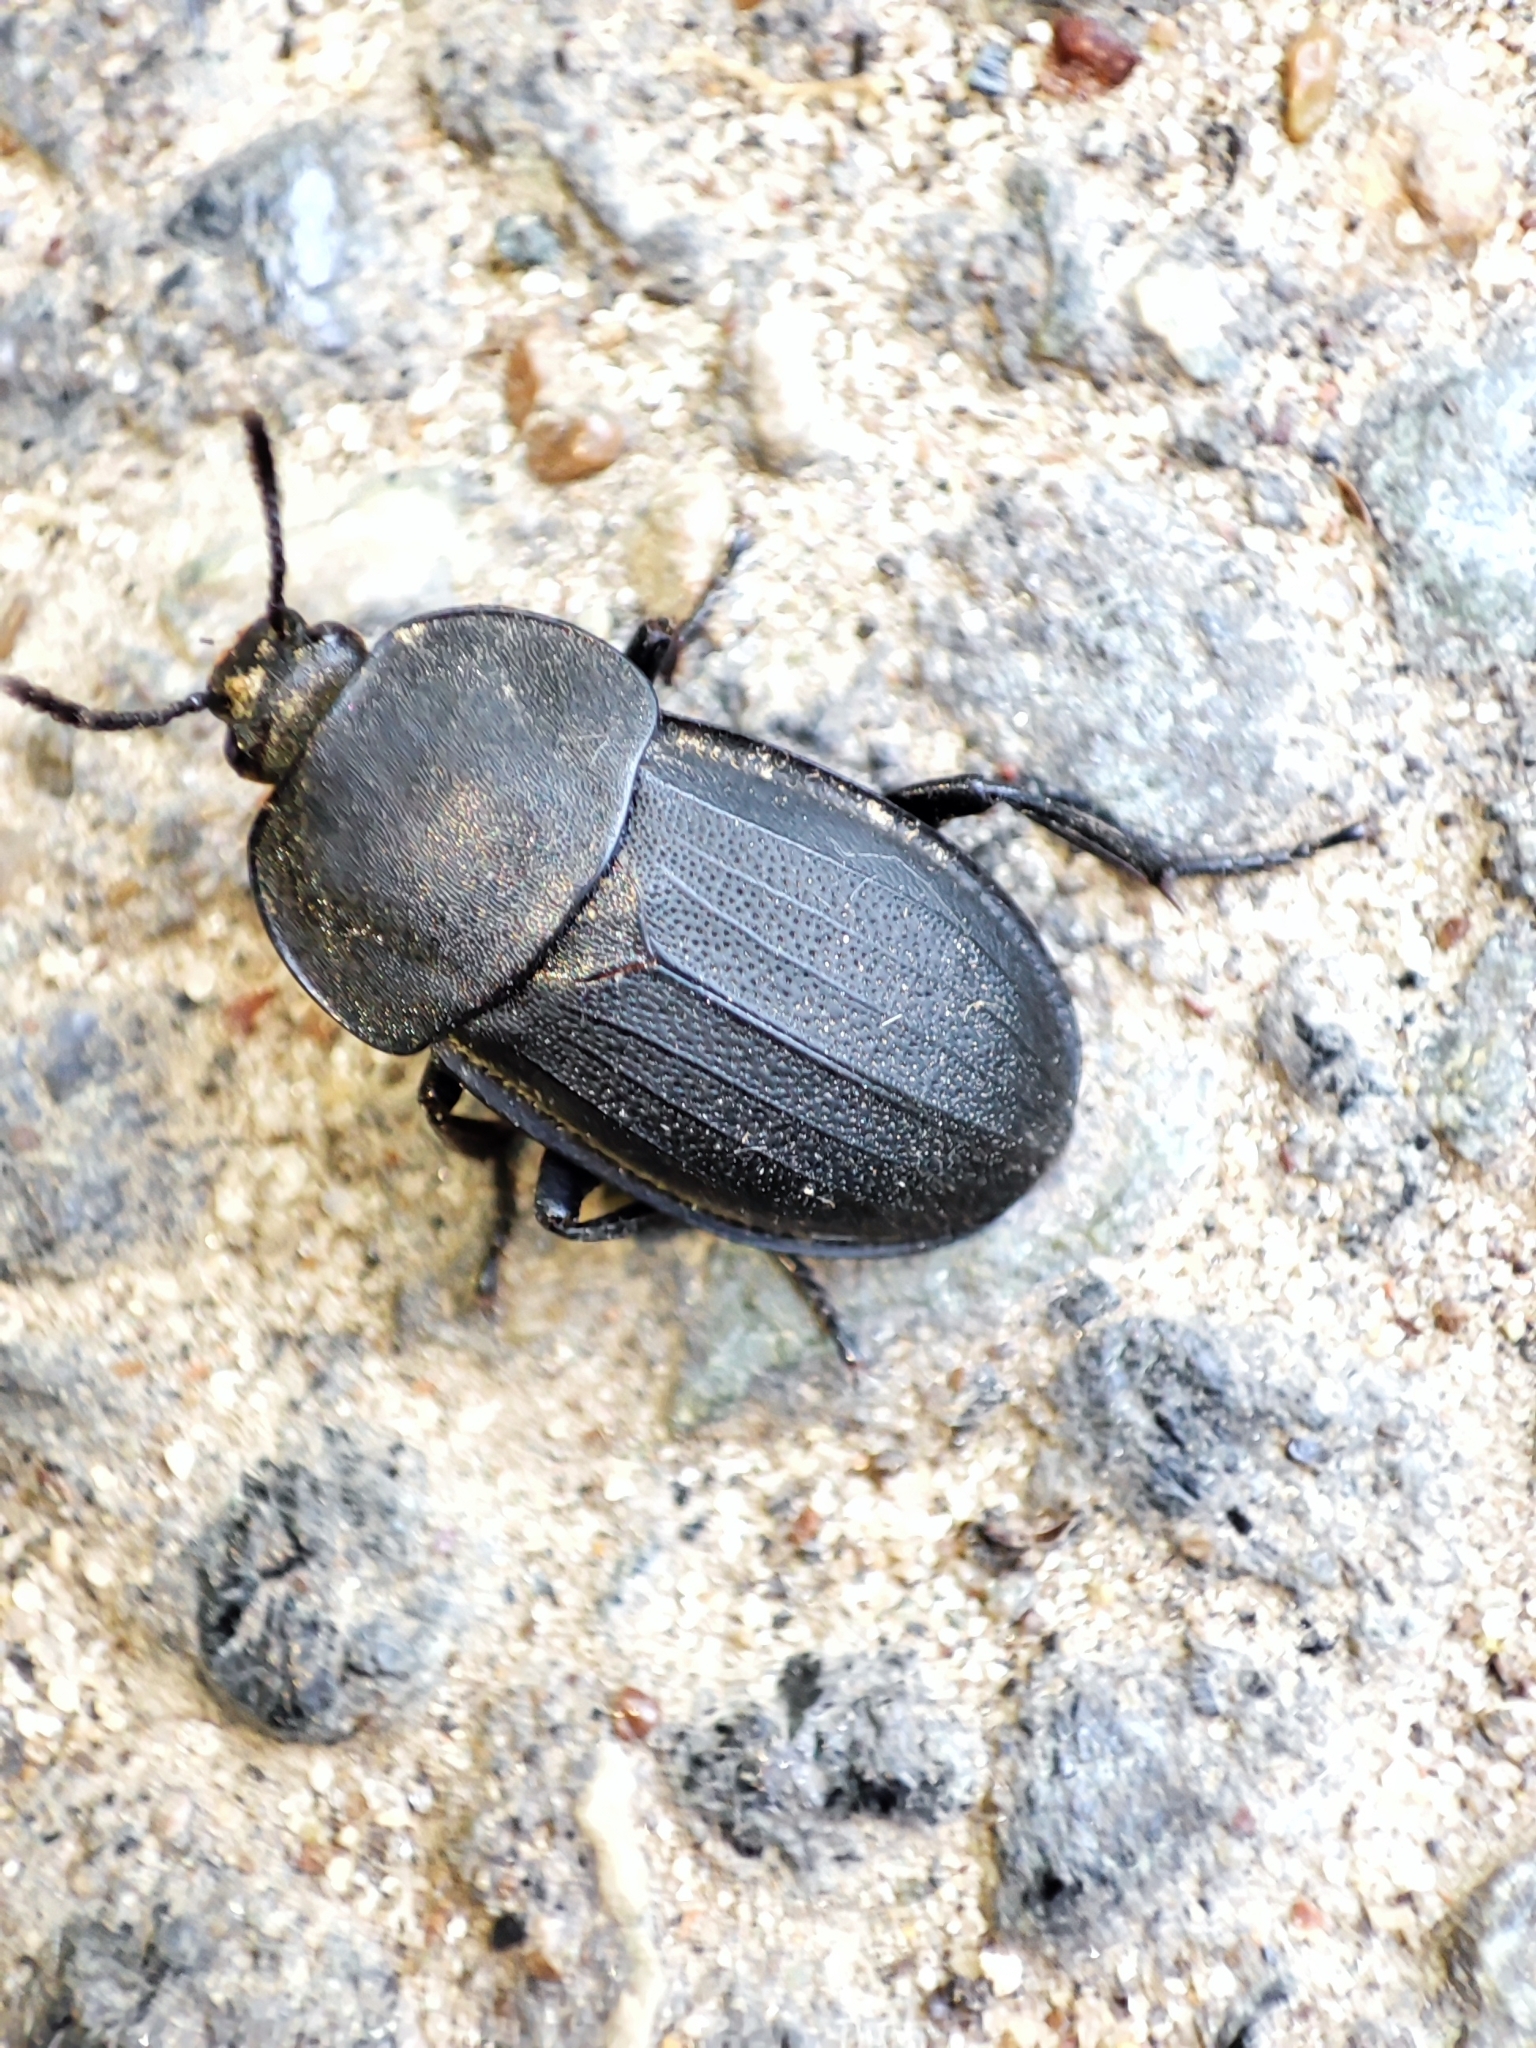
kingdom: Animalia
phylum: Arthropoda
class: Insecta
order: Coleoptera
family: Staphylinidae
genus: Silpha
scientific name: Silpha obscura
